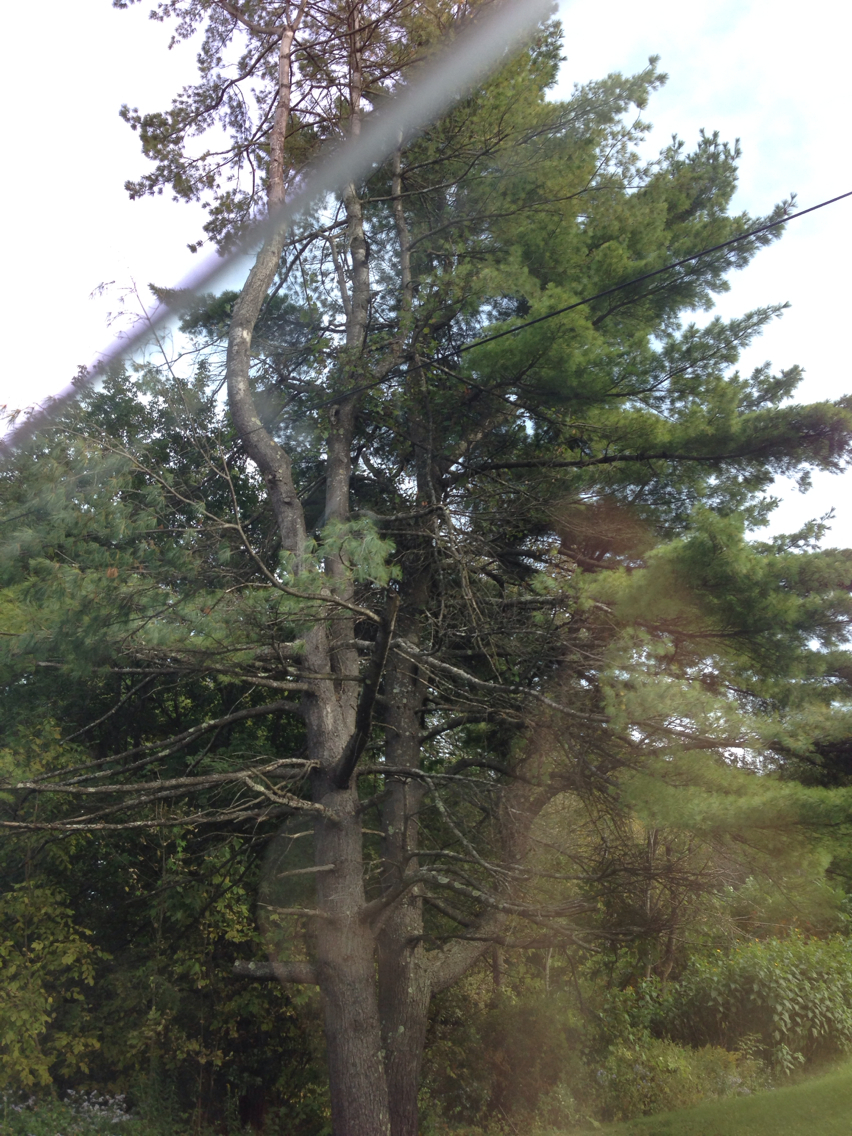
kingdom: Plantae
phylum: Tracheophyta
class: Pinopsida
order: Pinales
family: Pinaceae
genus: Pinus
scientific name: Pinus strobus
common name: Weymouth pine
